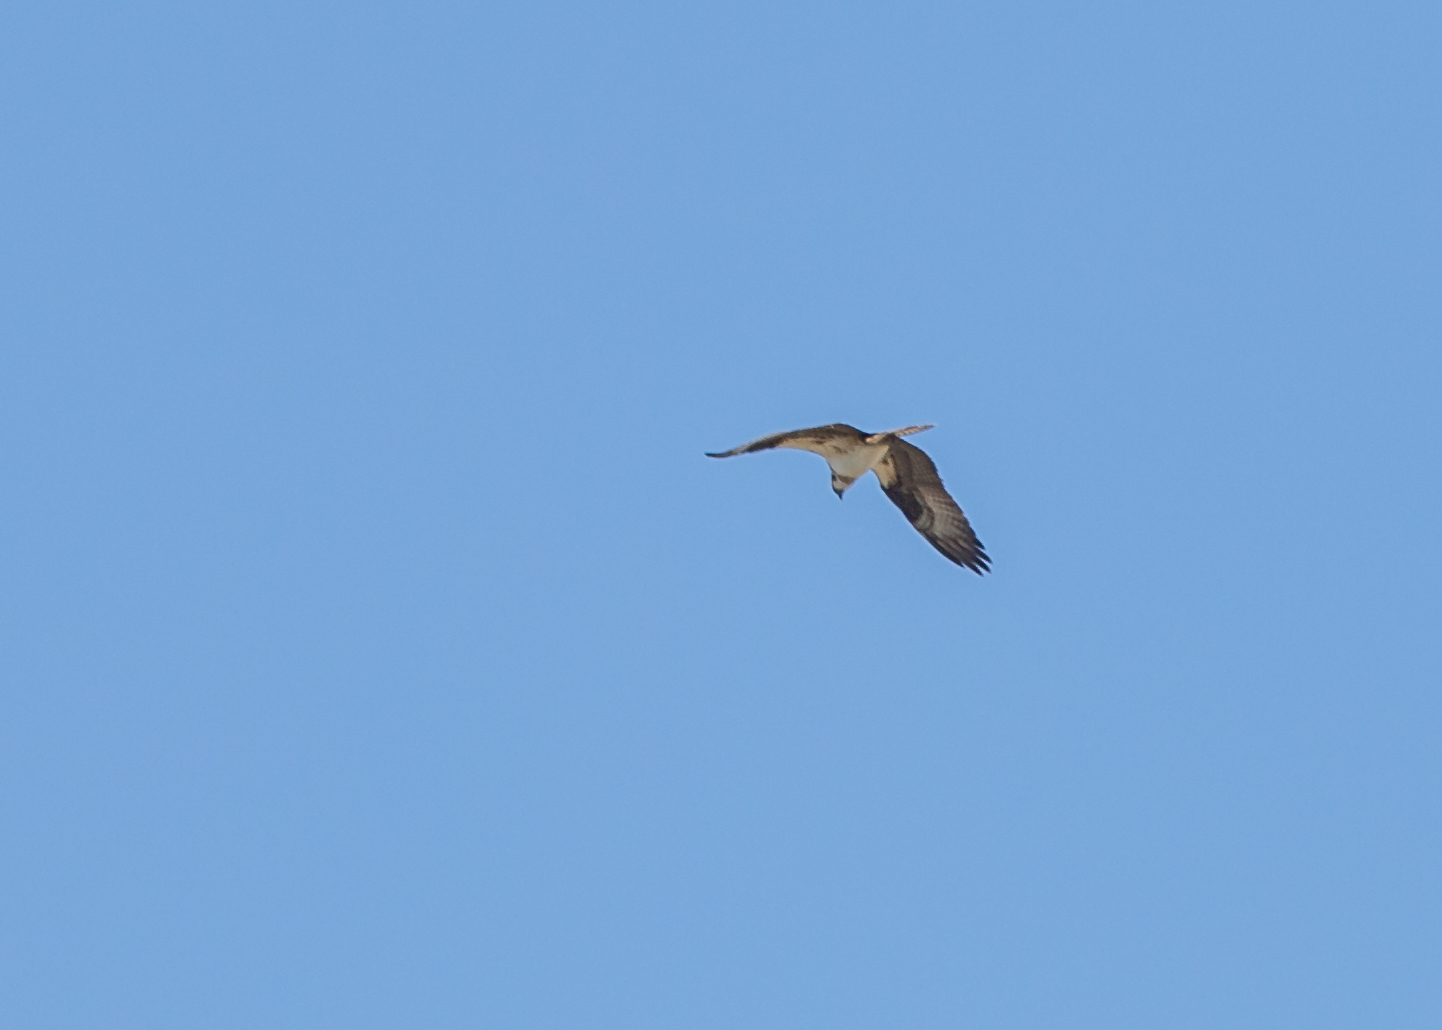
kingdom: Animalia
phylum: Chordata
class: Aves
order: Accipitriformes
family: Pandionidae
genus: Pandion
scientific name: Pandion haliaetus
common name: Osprey
